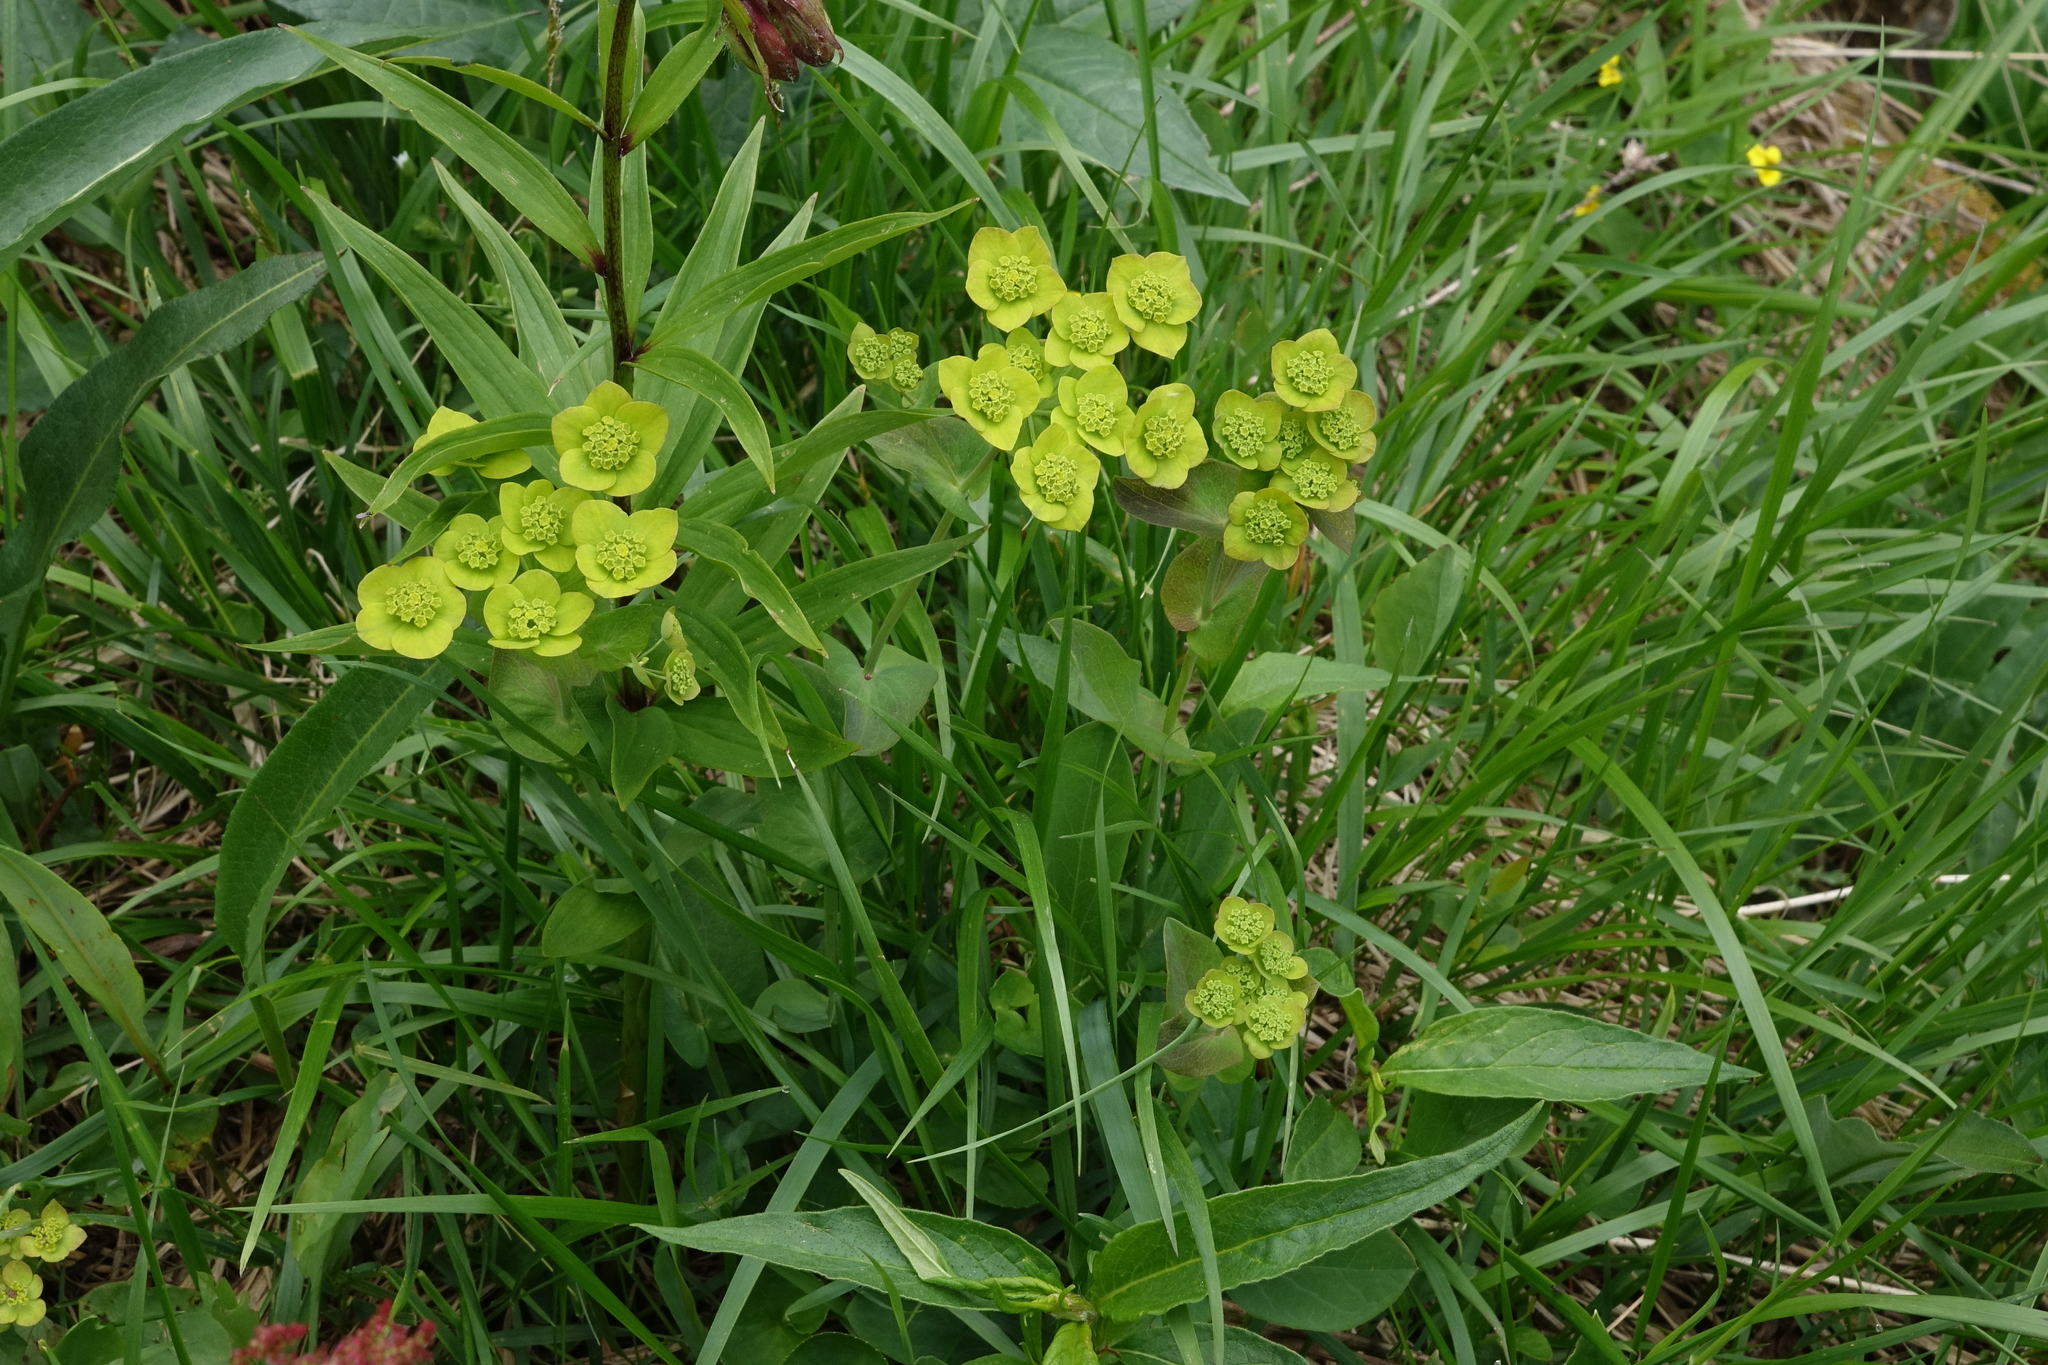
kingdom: Plantae
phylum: Tracheophyta
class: Magnoliopsida
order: Apiales
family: Apiaceae
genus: Bupleurum
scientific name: Bupleurum aureum
